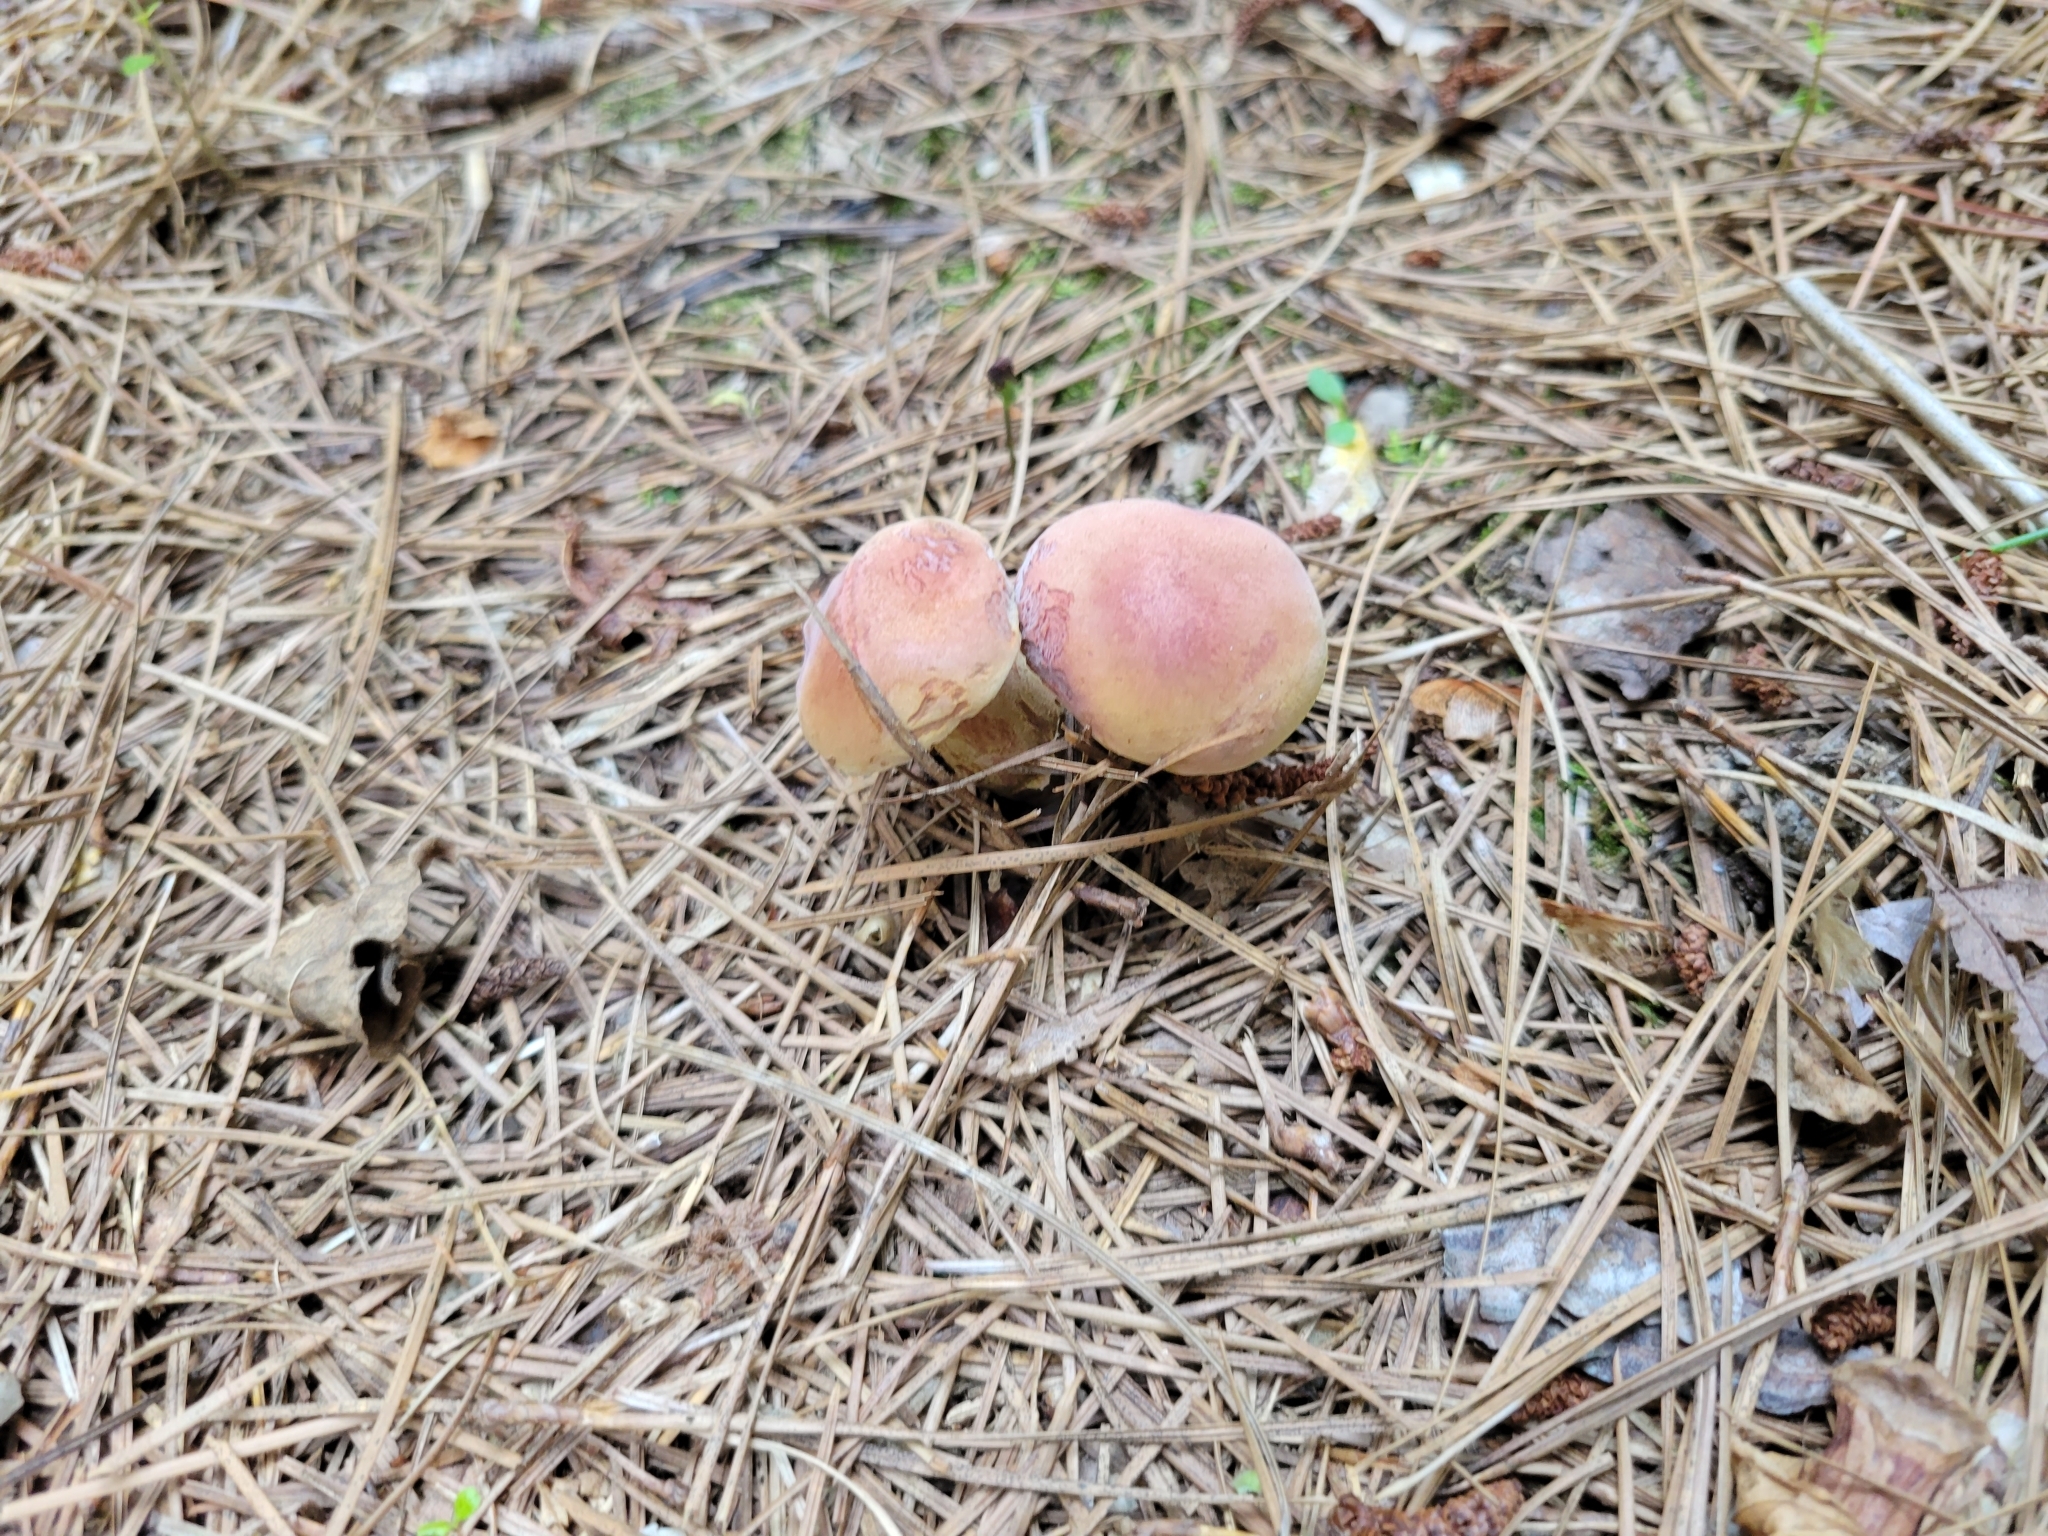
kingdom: Fungi
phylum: Basidiomycota
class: Agaricomycetes
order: Boletales
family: Boletaceae
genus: Harrya
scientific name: Harrya chromipes
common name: Chrome-footed bolete
